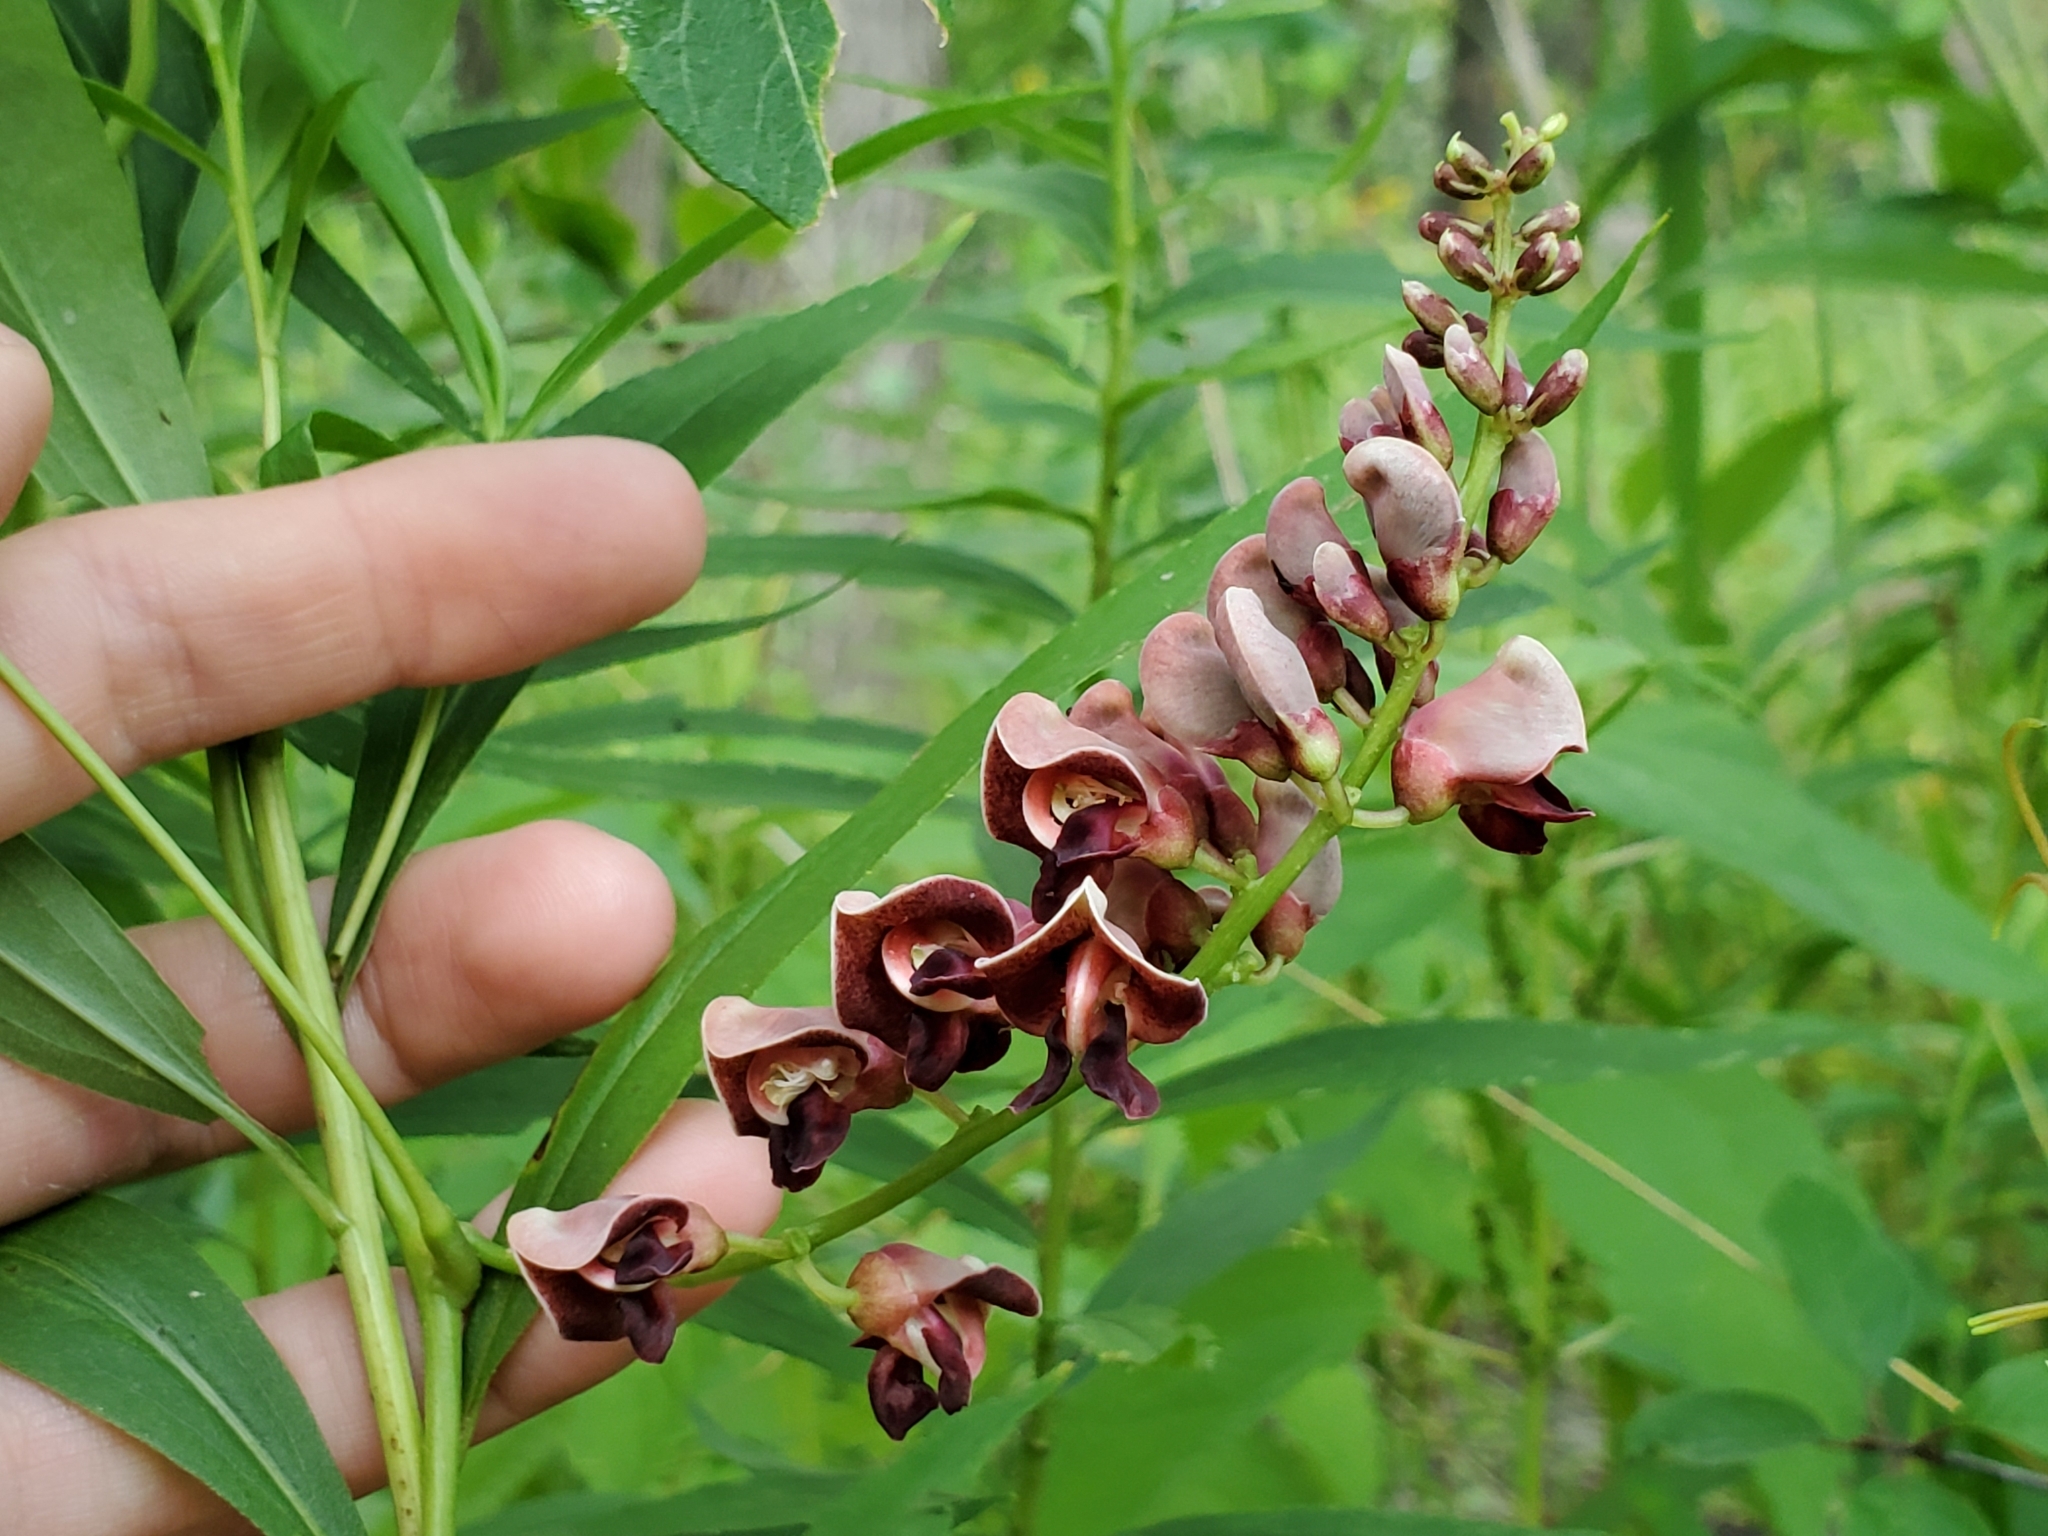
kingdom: Plantae
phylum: Tracheophyta
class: Magnoliopsida
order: Fabales
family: Fabaceae
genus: Apios
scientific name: Apios americana
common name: American potato-bean
